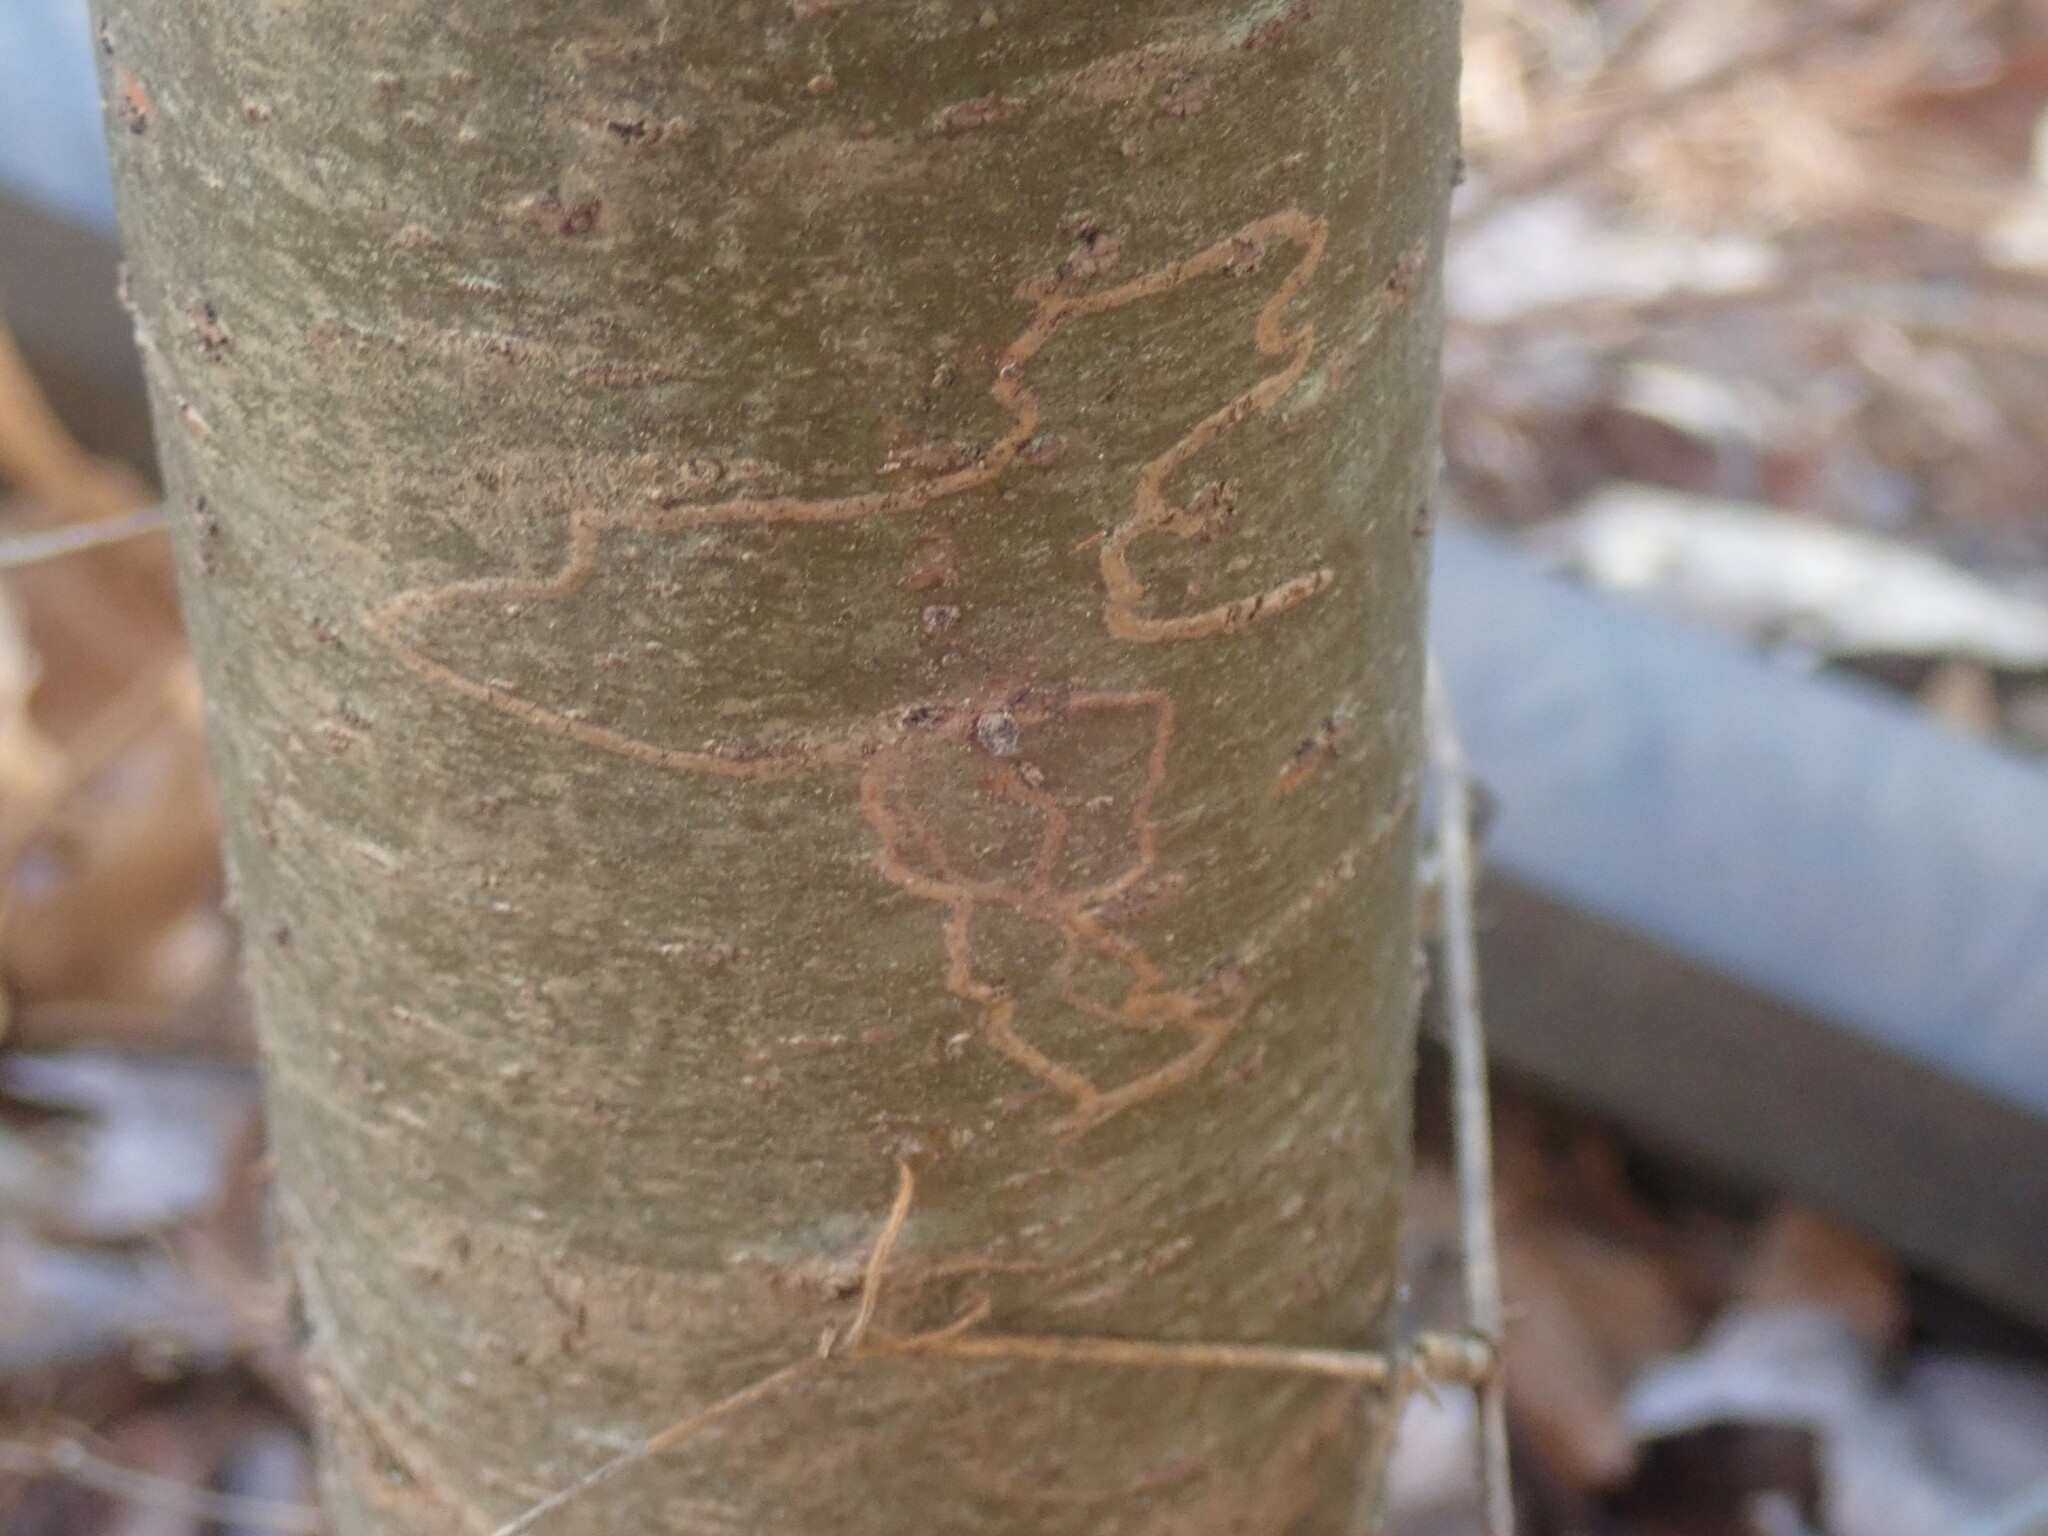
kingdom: Animalia
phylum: Arthropoda
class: Insecta
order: Lepidoptera
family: Gracillariidae
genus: Marmara
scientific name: Marmara fasciella
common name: White pine barkminer moth
